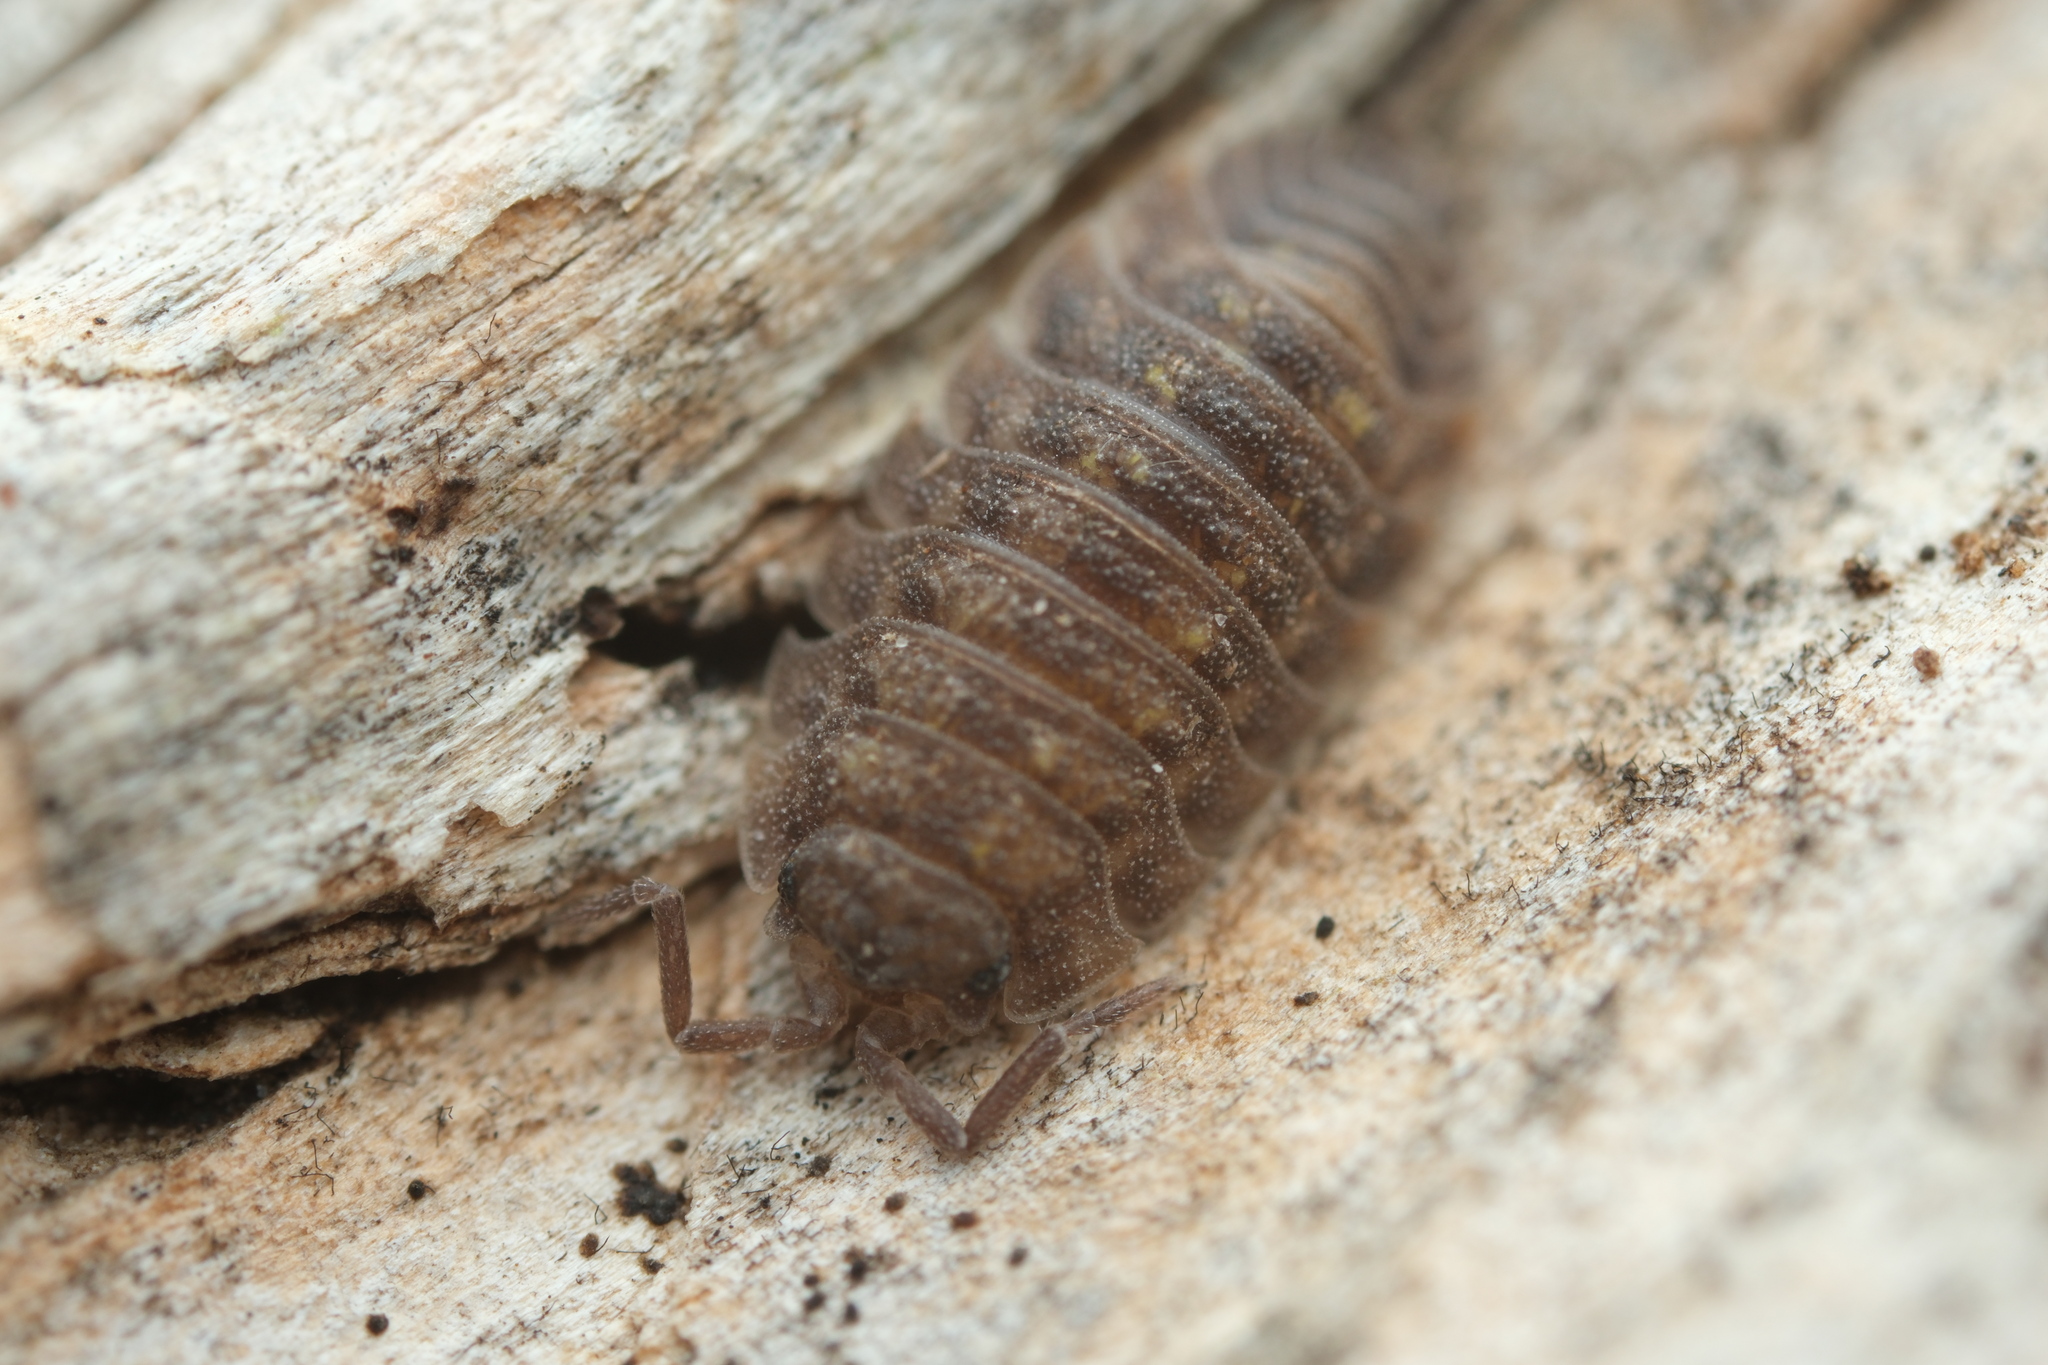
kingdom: Animalia
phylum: Arthropoda
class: Malacostraca
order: Isopoda
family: Oniscidae
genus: Oniscus
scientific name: Oniscus asellus
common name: Common shiny woodlouse
